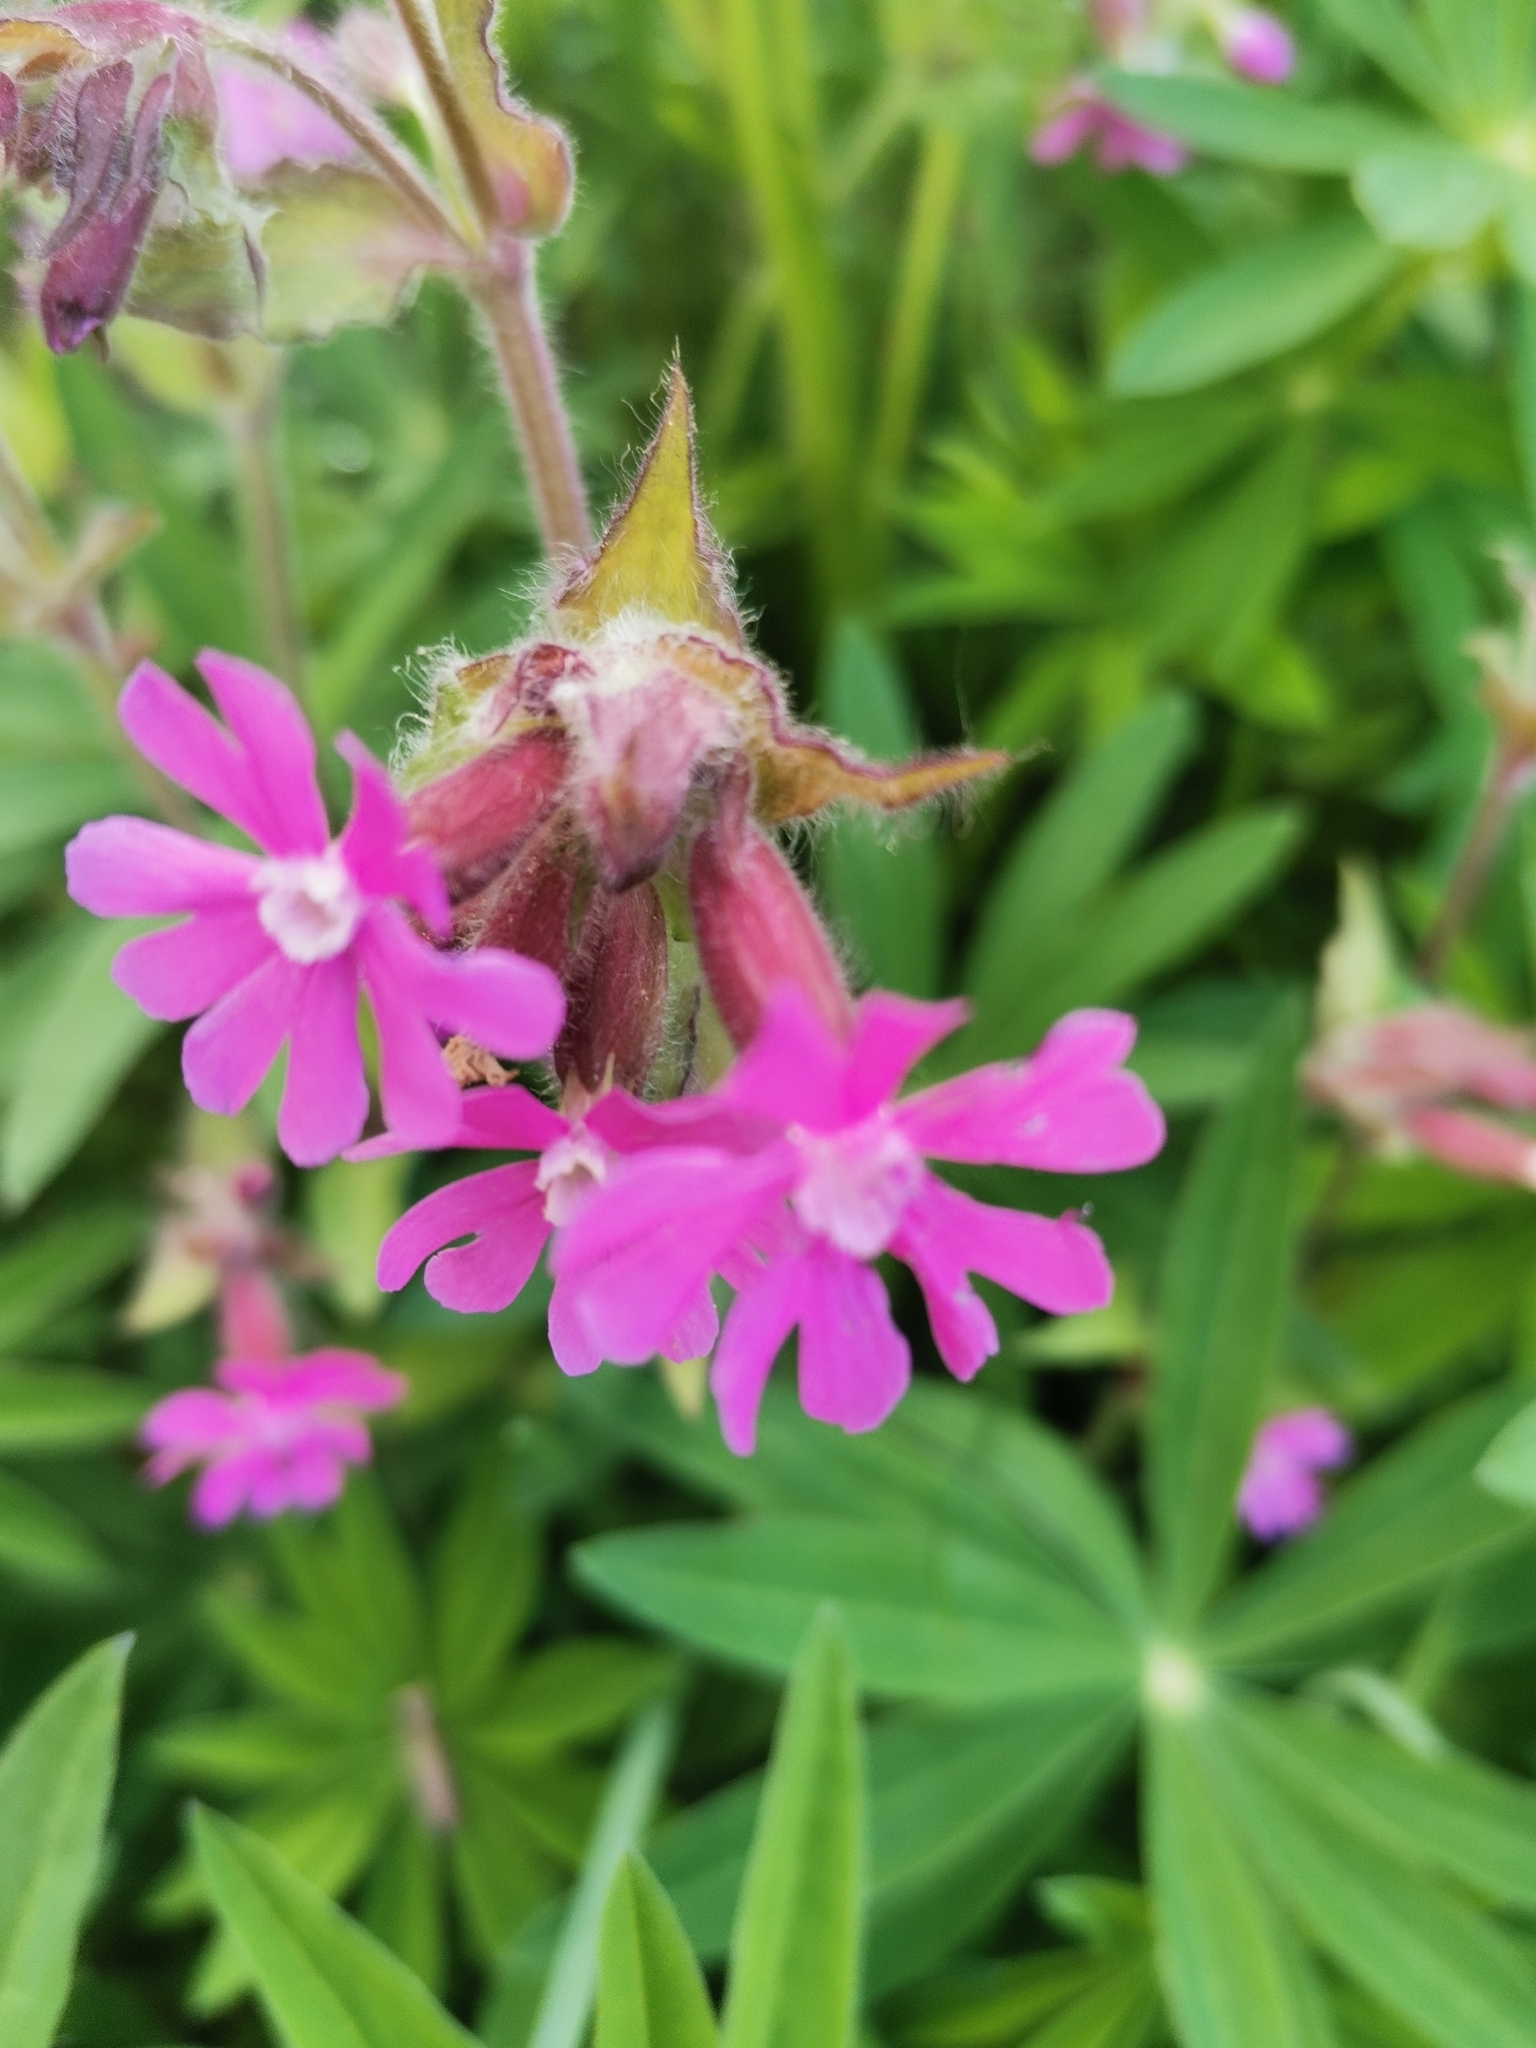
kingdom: Plantae
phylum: Tracheophyta
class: Magnoliopsida
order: Caryophyllales
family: Caryophyllaceae
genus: Silene
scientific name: Silene dioica
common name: Red campion
